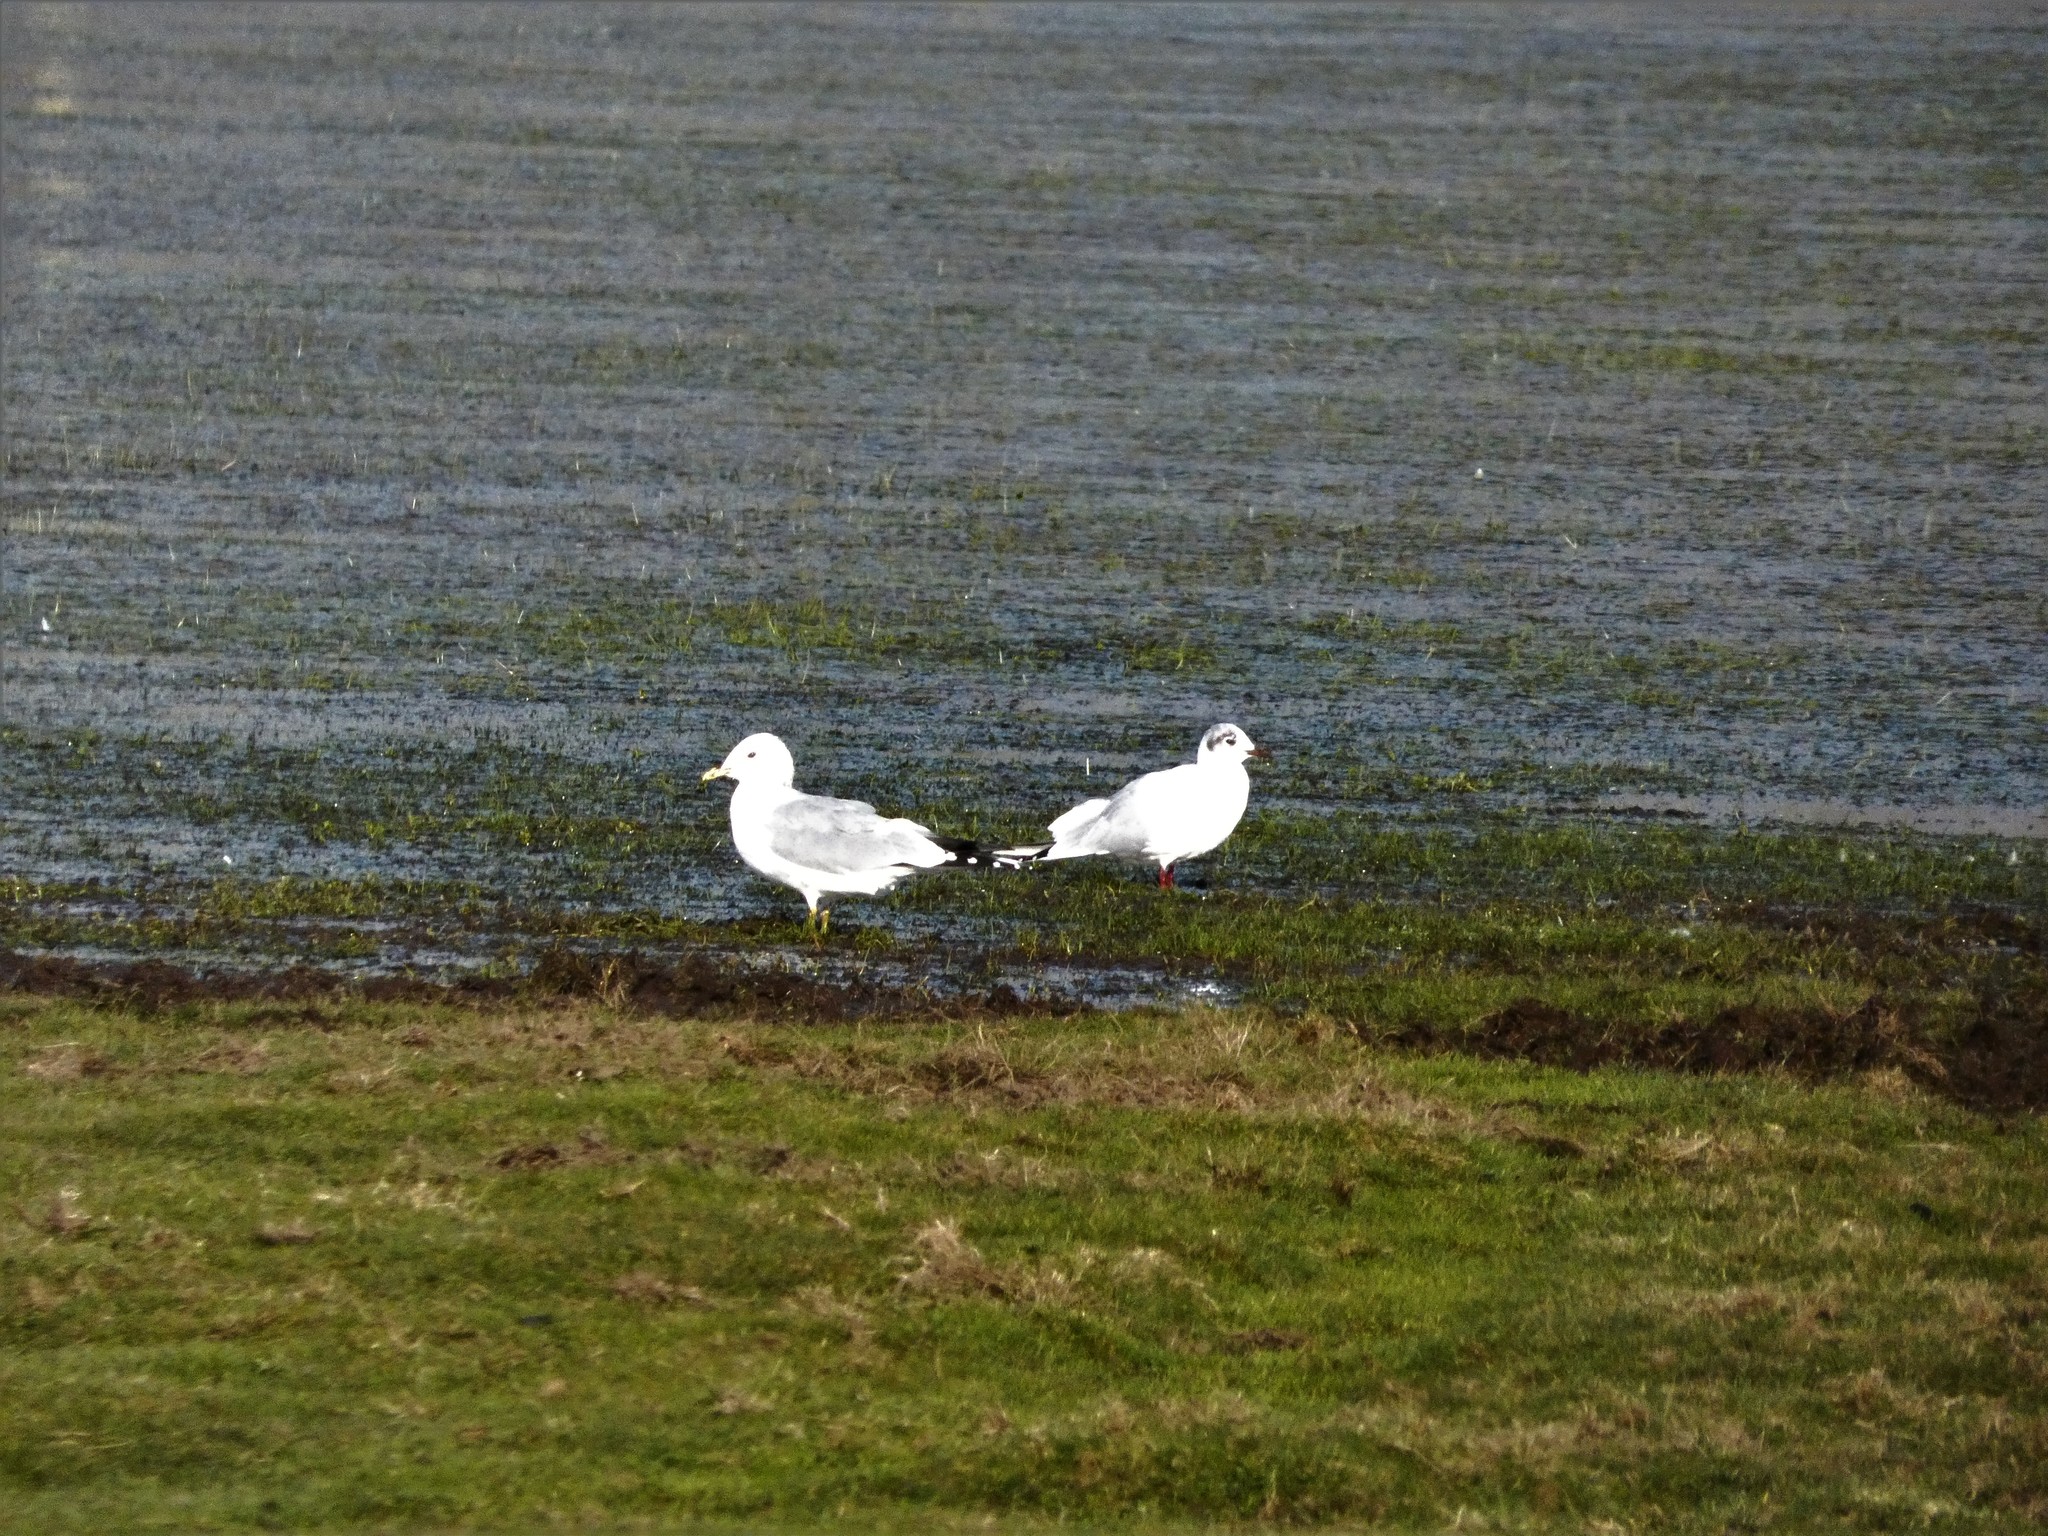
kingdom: Animalia
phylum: Chordata
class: Aves
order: Charadriiformes
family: Laridae
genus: Larus
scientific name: Larus canus
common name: Mew gull
